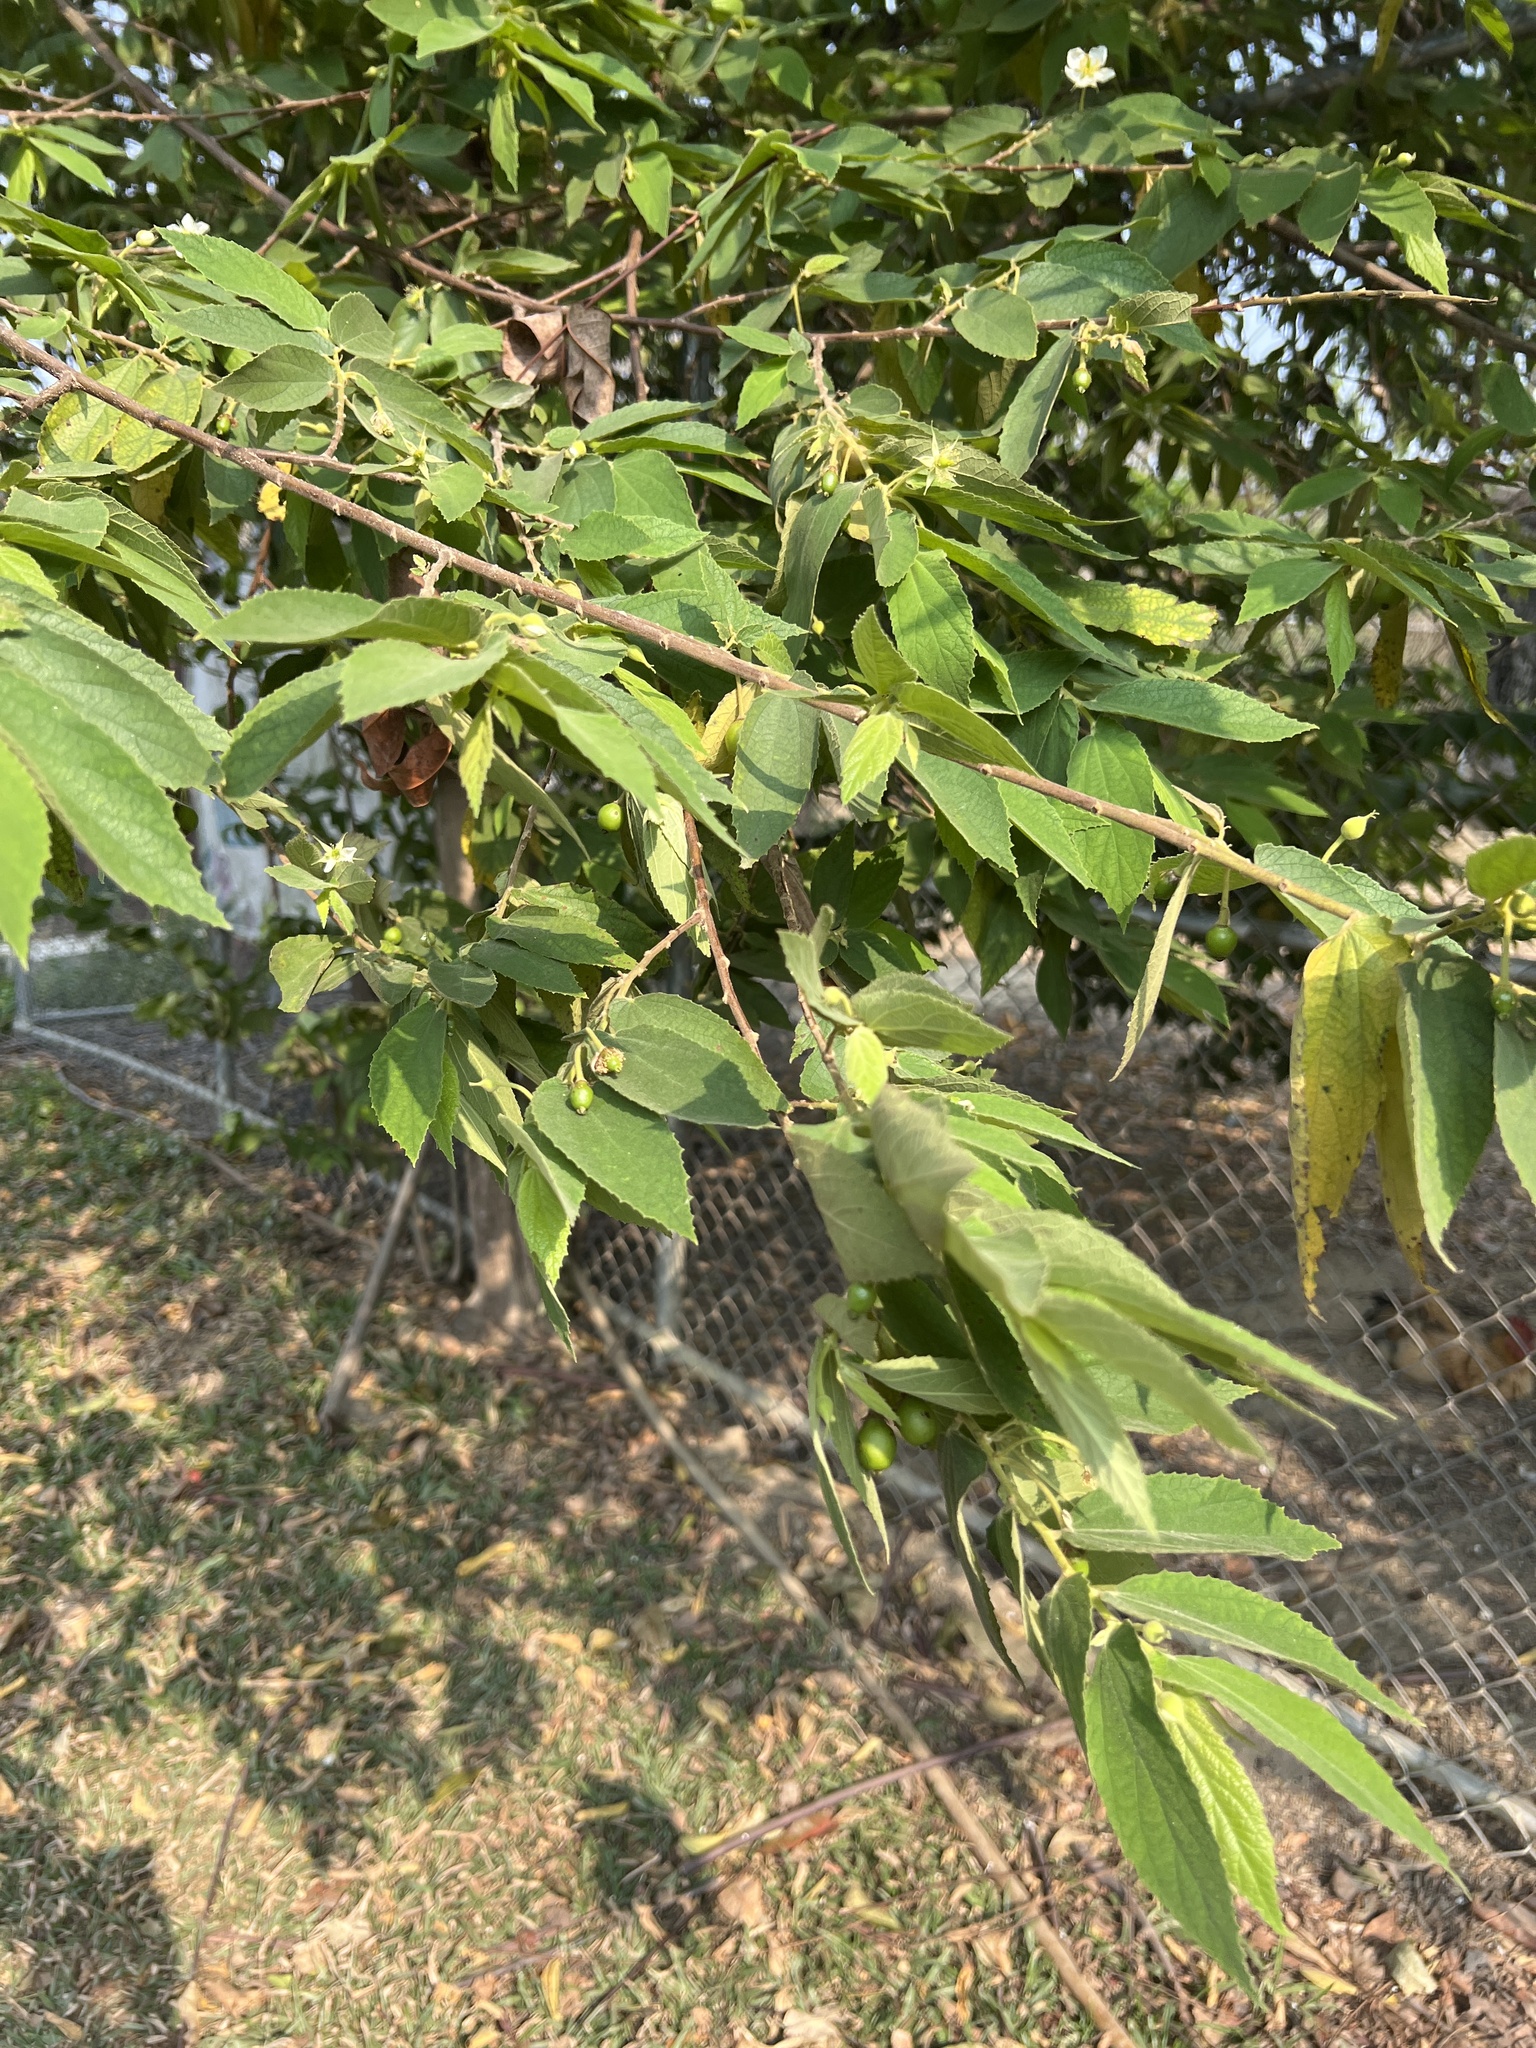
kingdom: Plantae
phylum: Tracheophyta
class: Magnoliopsida
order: Malvales
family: Muntingiaceae
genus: Muntingia
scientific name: Muntingia calabura
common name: Strawberrytree
